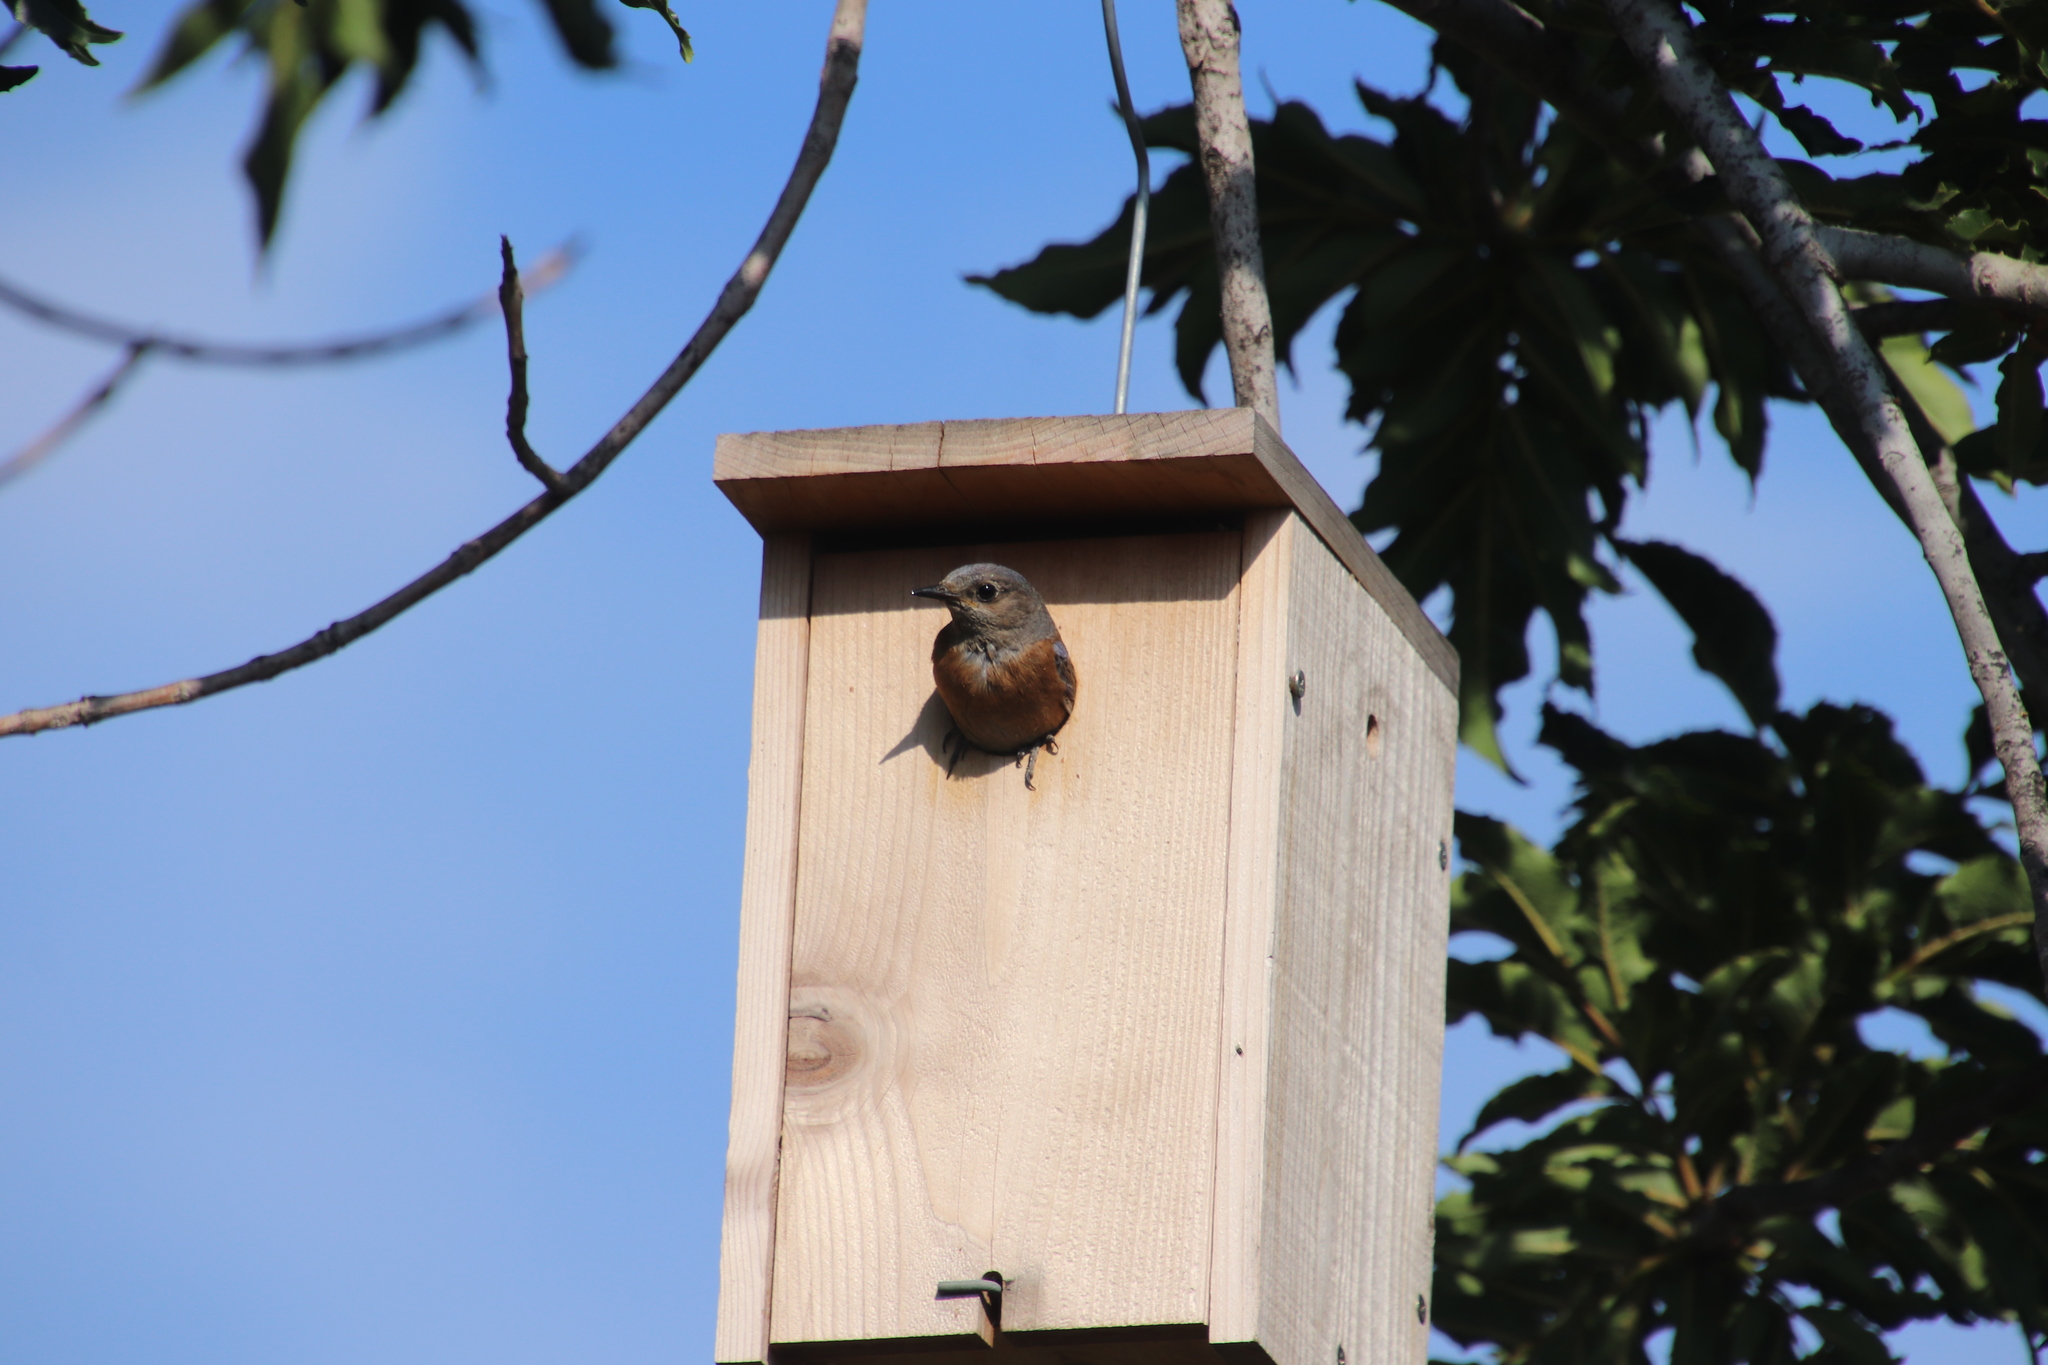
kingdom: Animalia
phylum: Chordata
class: Aves
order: Passeriformes
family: Turdidae
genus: Sialia
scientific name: Sialia mexicana
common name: Western bluebird
